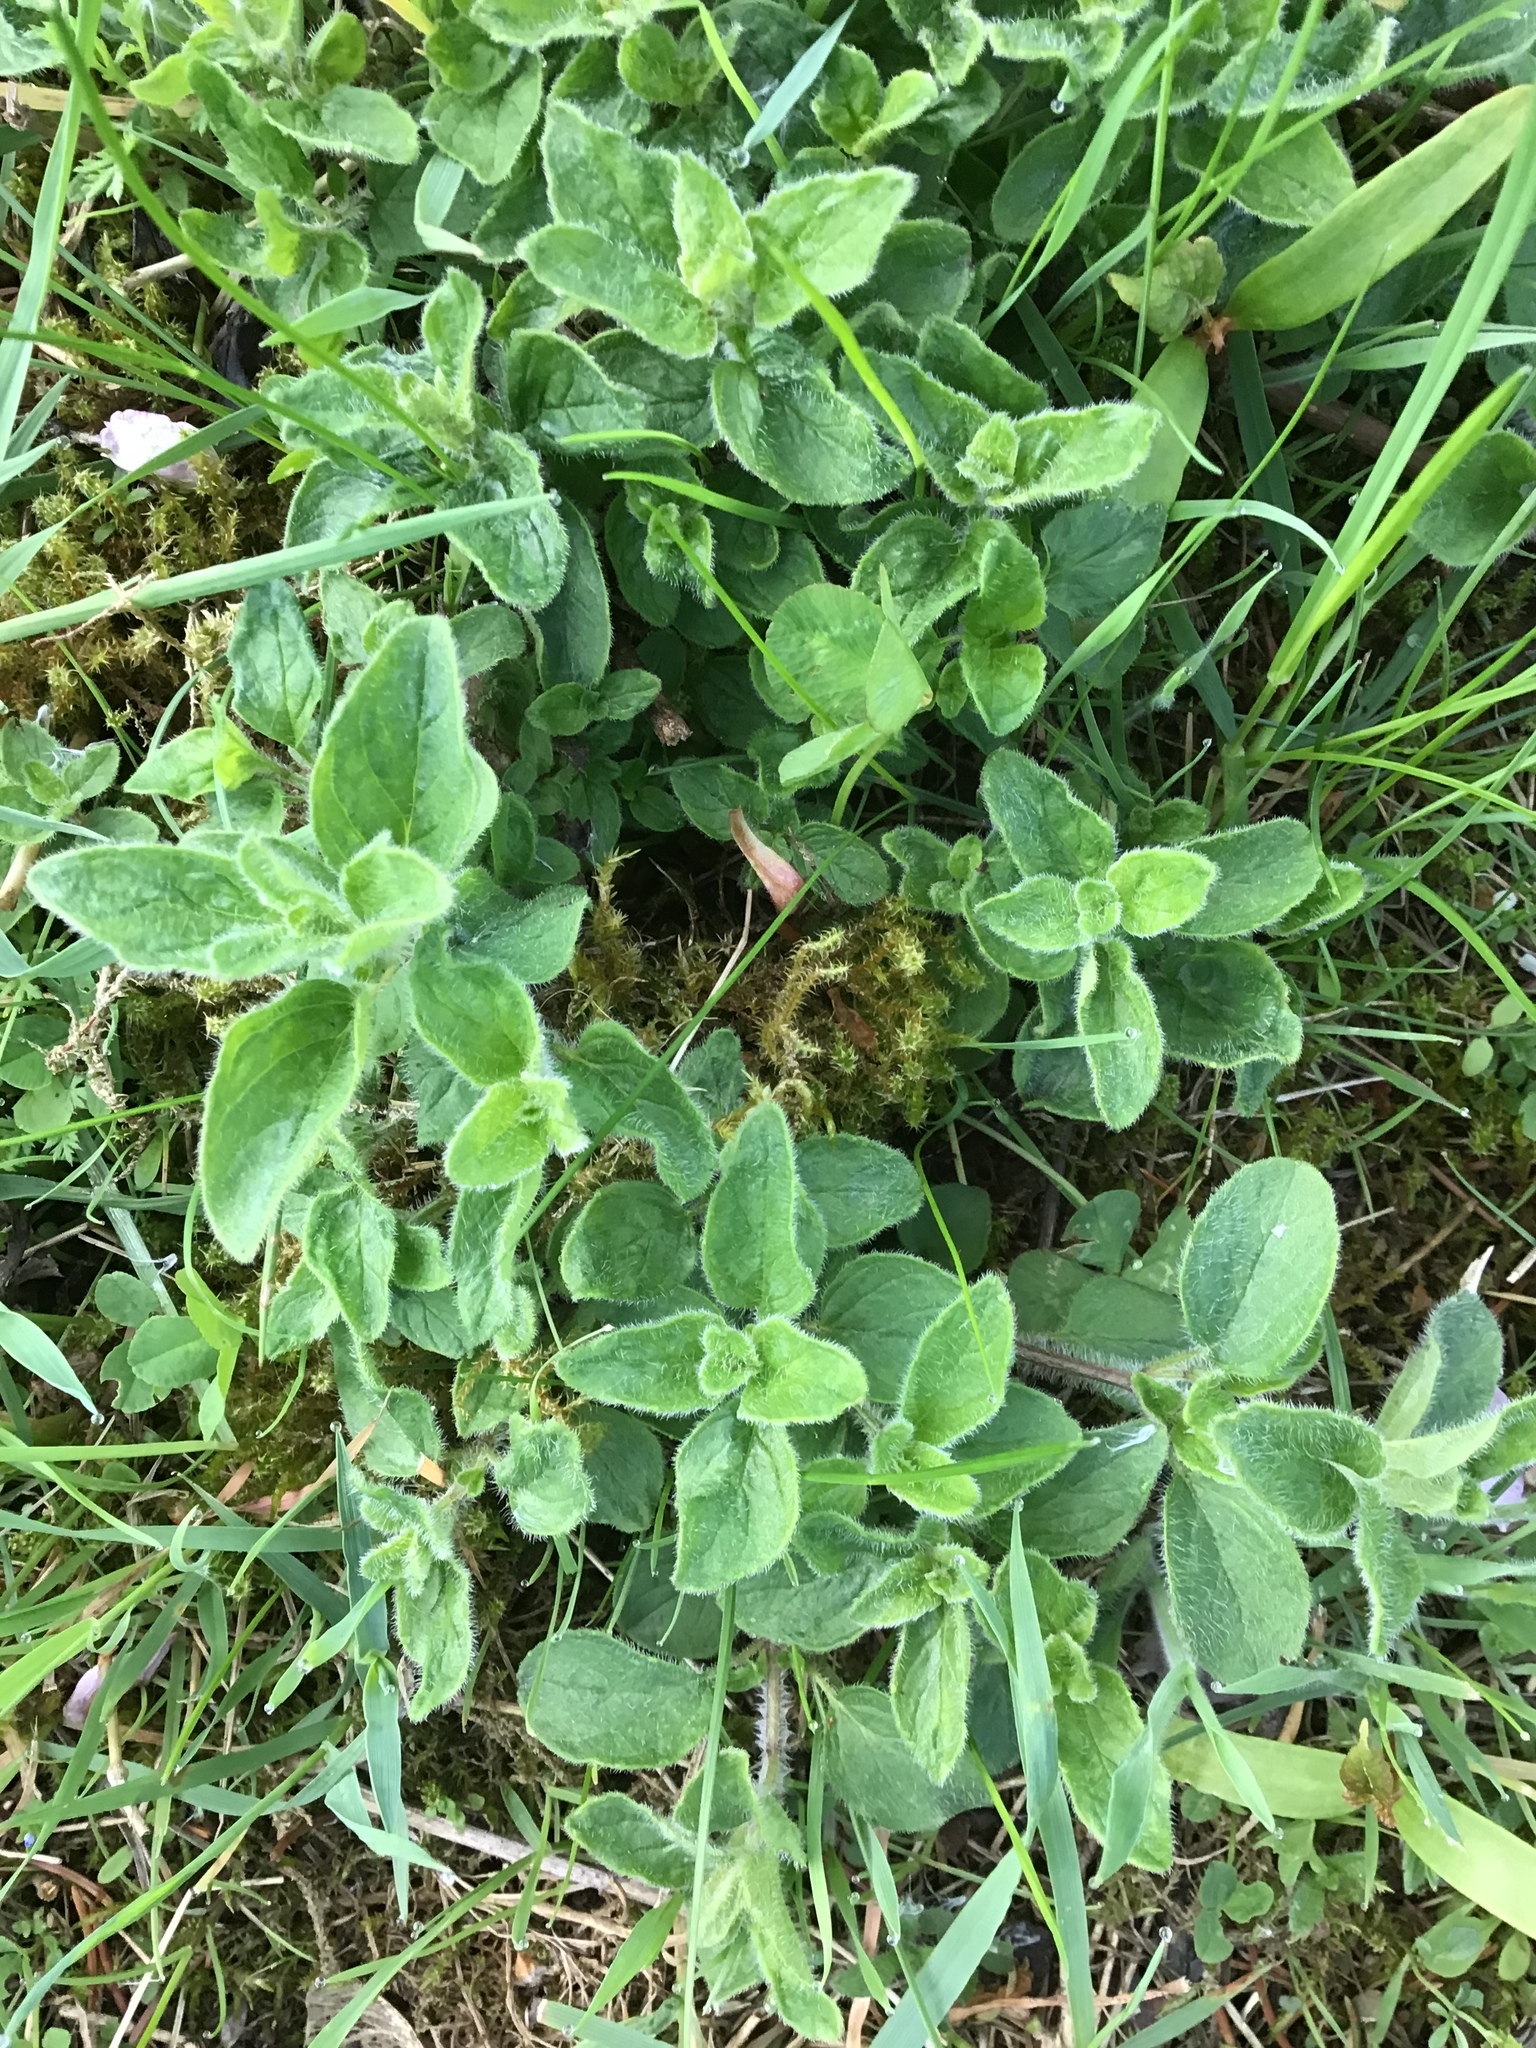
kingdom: Plantae
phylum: Tracheophyta
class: Magnoliopsida
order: Lamiales
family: Lamiaceae
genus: Origanum
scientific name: Origanum vulgare
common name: Wild marjoram
